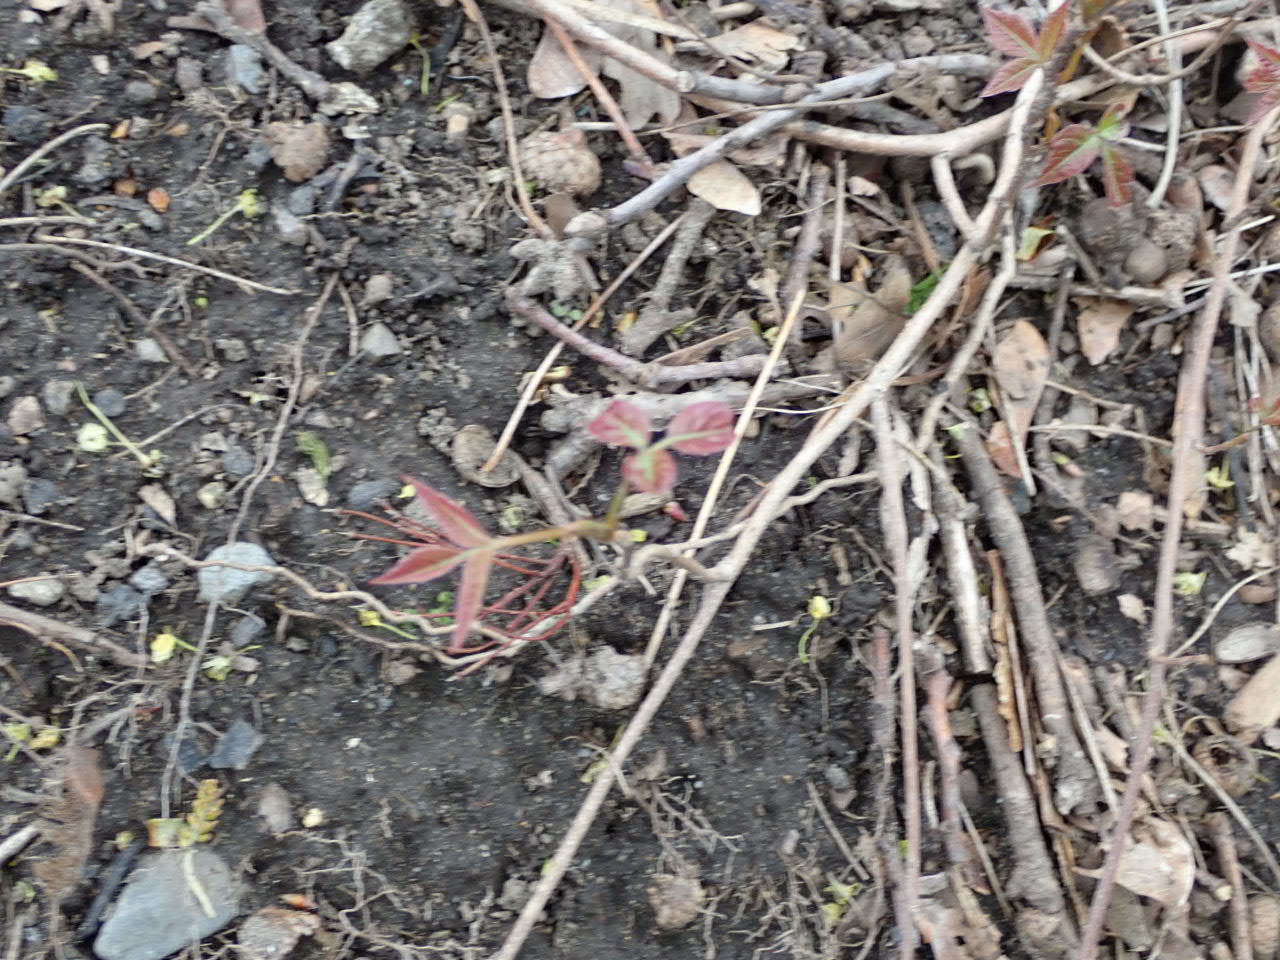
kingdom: Plantae
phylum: Tracheophyta
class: Magnoliopsida
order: Sapindales
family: Anacardiaceae
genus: Toxicodendron
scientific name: Toxicodendron radicans
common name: Poison ivy
